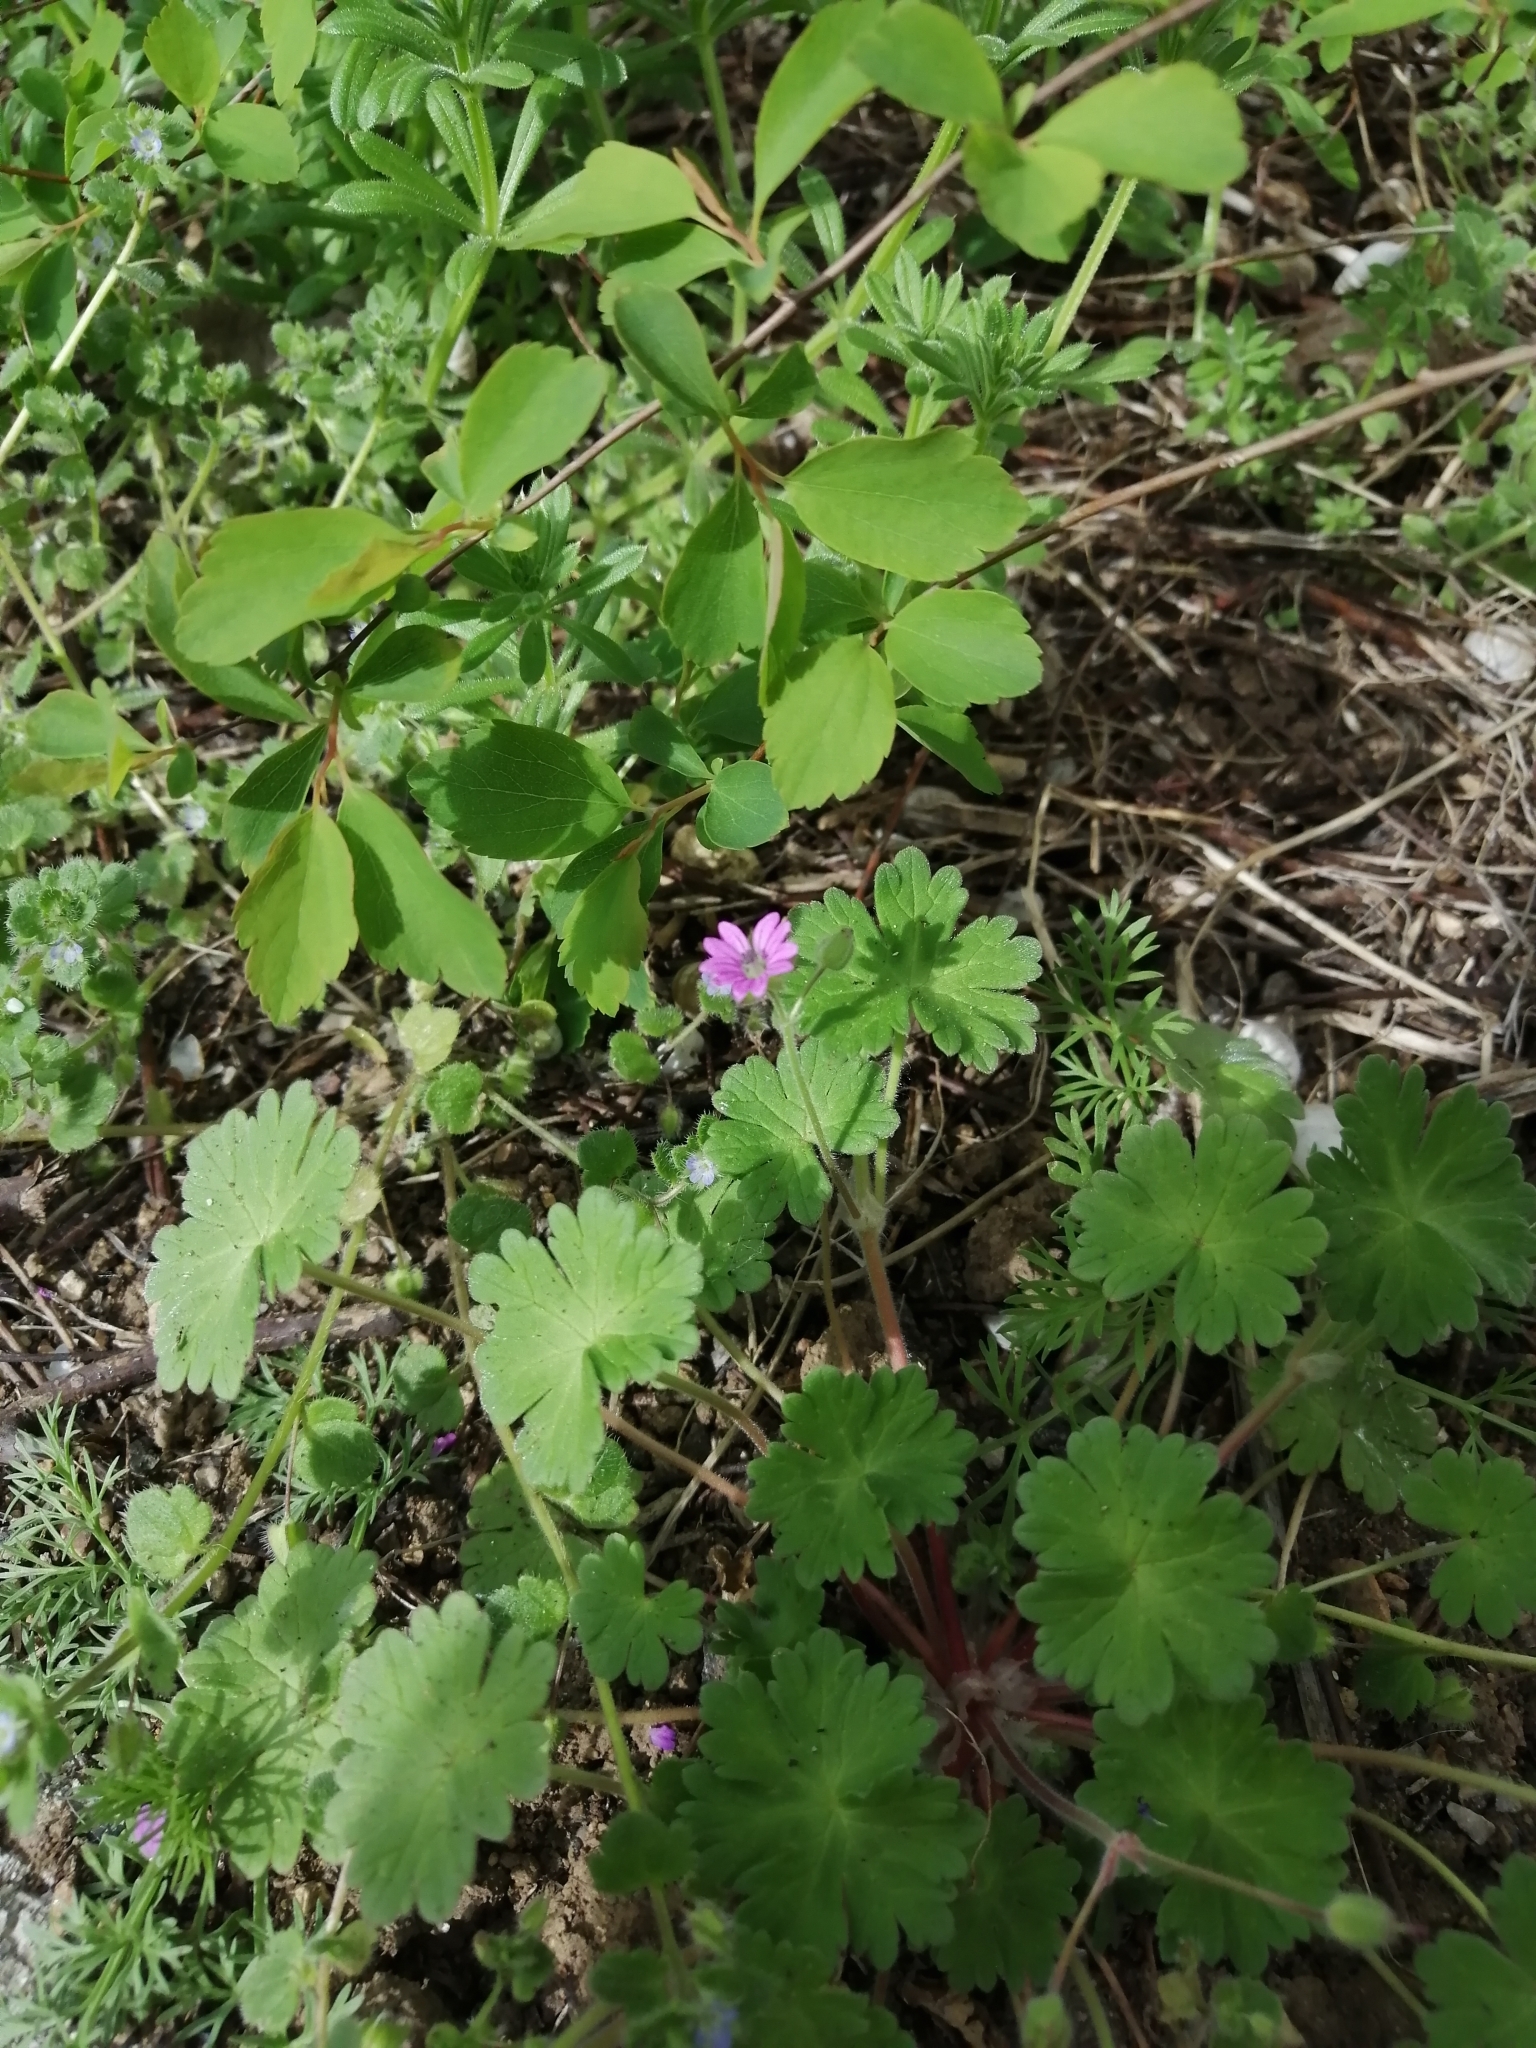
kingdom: Plantae
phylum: Tracheophyta
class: Magnoliopsida
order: Geraniales
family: Geraniaceae
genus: Geranium
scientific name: Geranium molle
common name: Dove's-foot crane's-bill
